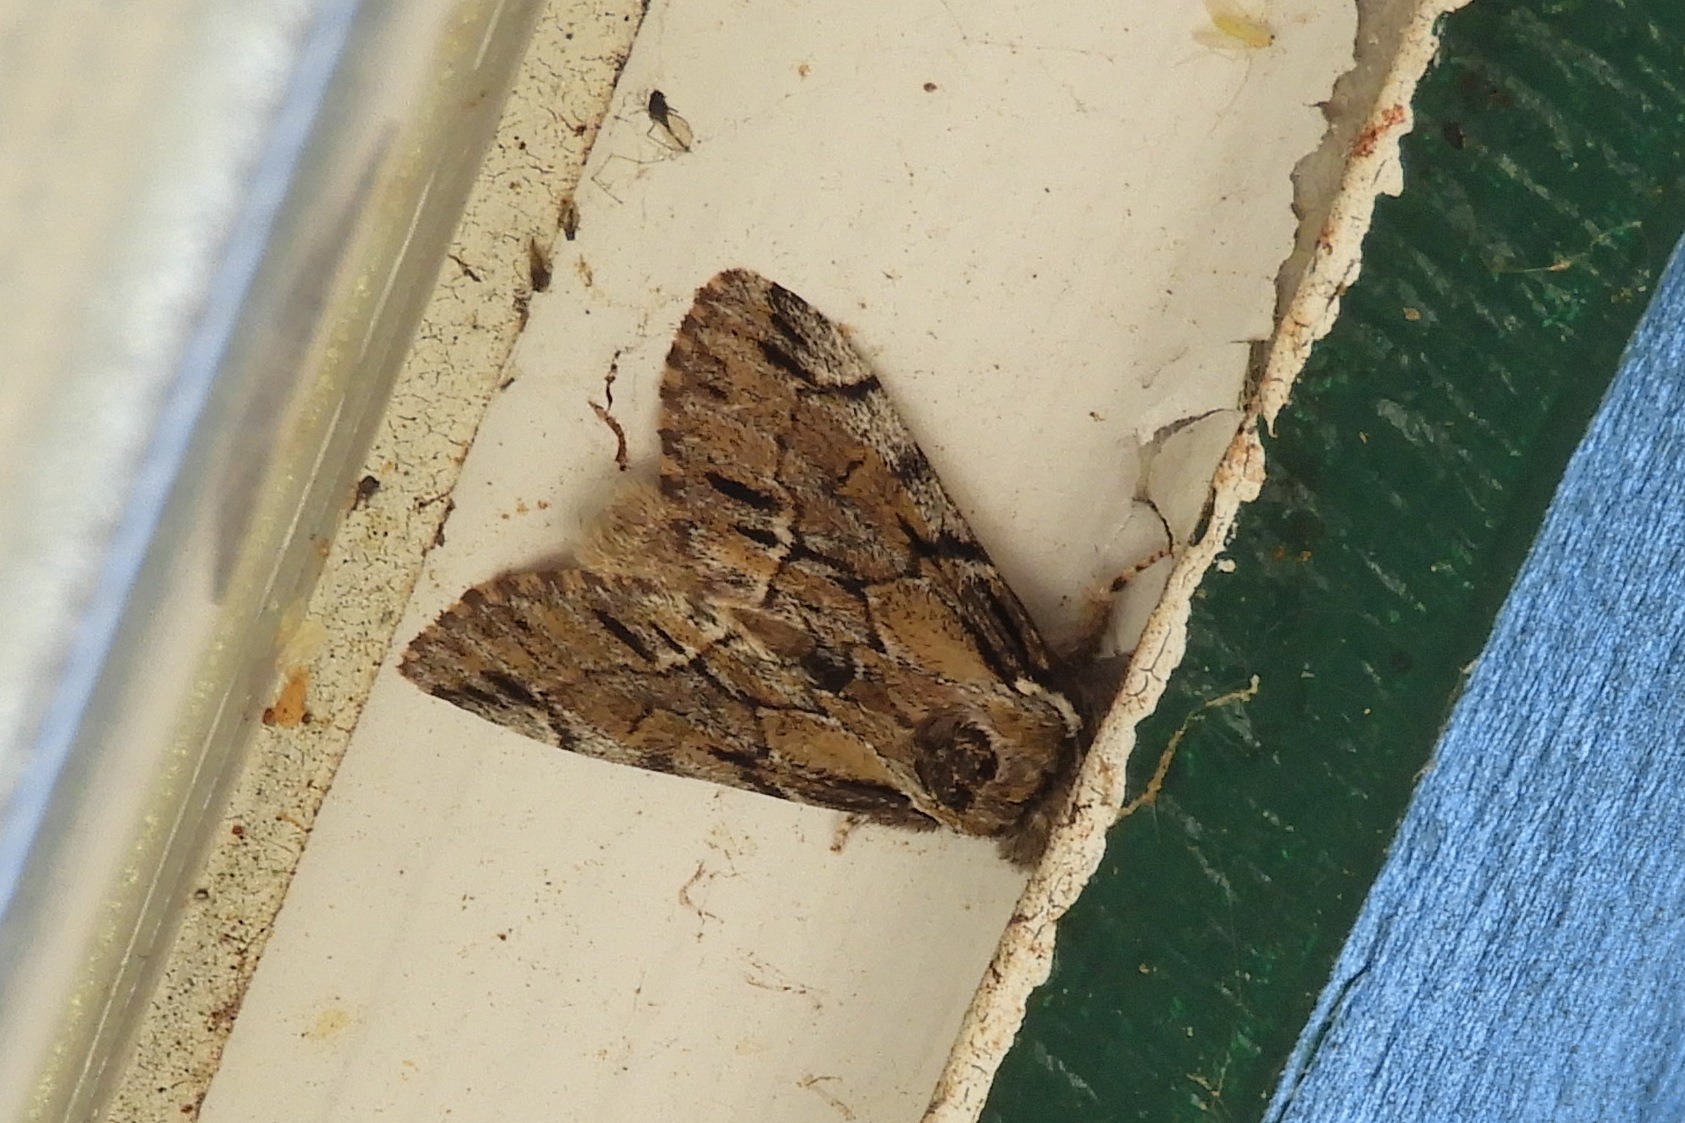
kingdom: Animalia
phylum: Arthropoda
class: Insecta
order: Lepidoptera
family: Notodontidae
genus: Paraeschra
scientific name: Paraeschra georgica
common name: Georgian prominent
